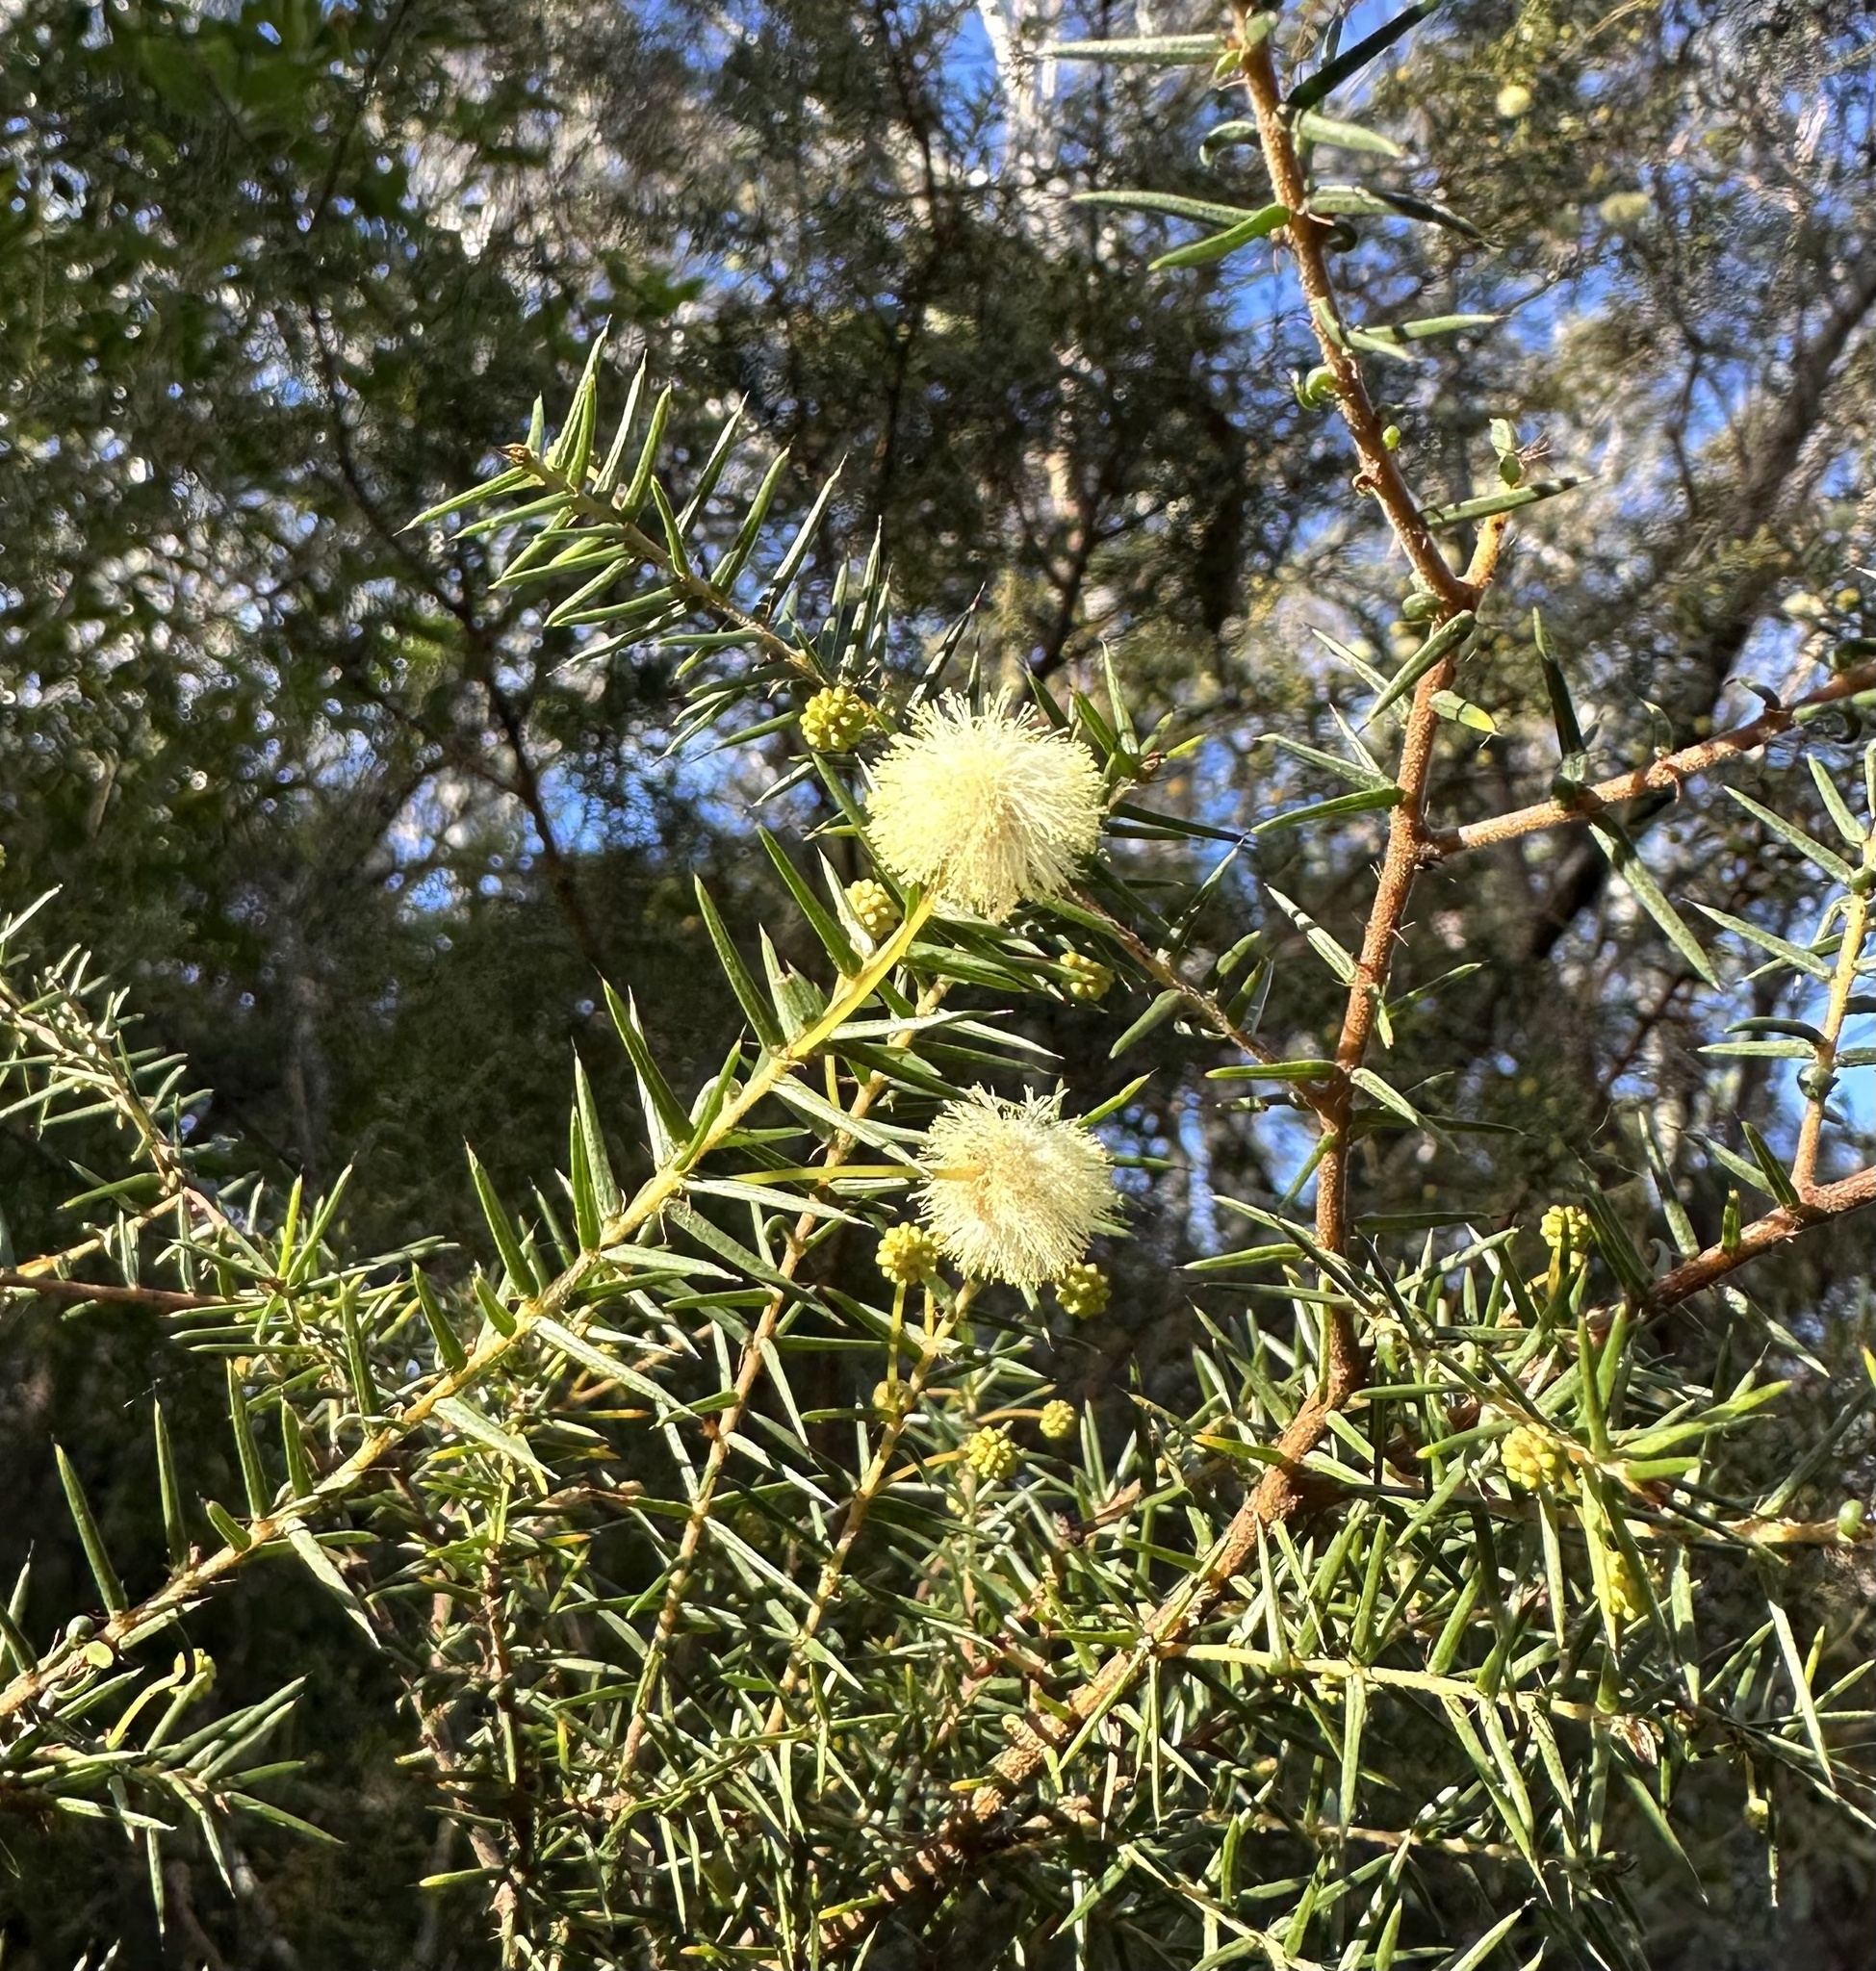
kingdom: Plantae
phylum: Tracheophyta
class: Magnoliopsida
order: Fabales
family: Fabaceae
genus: Acacia
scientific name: Acacia ulicifolia
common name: Juniper wattle
